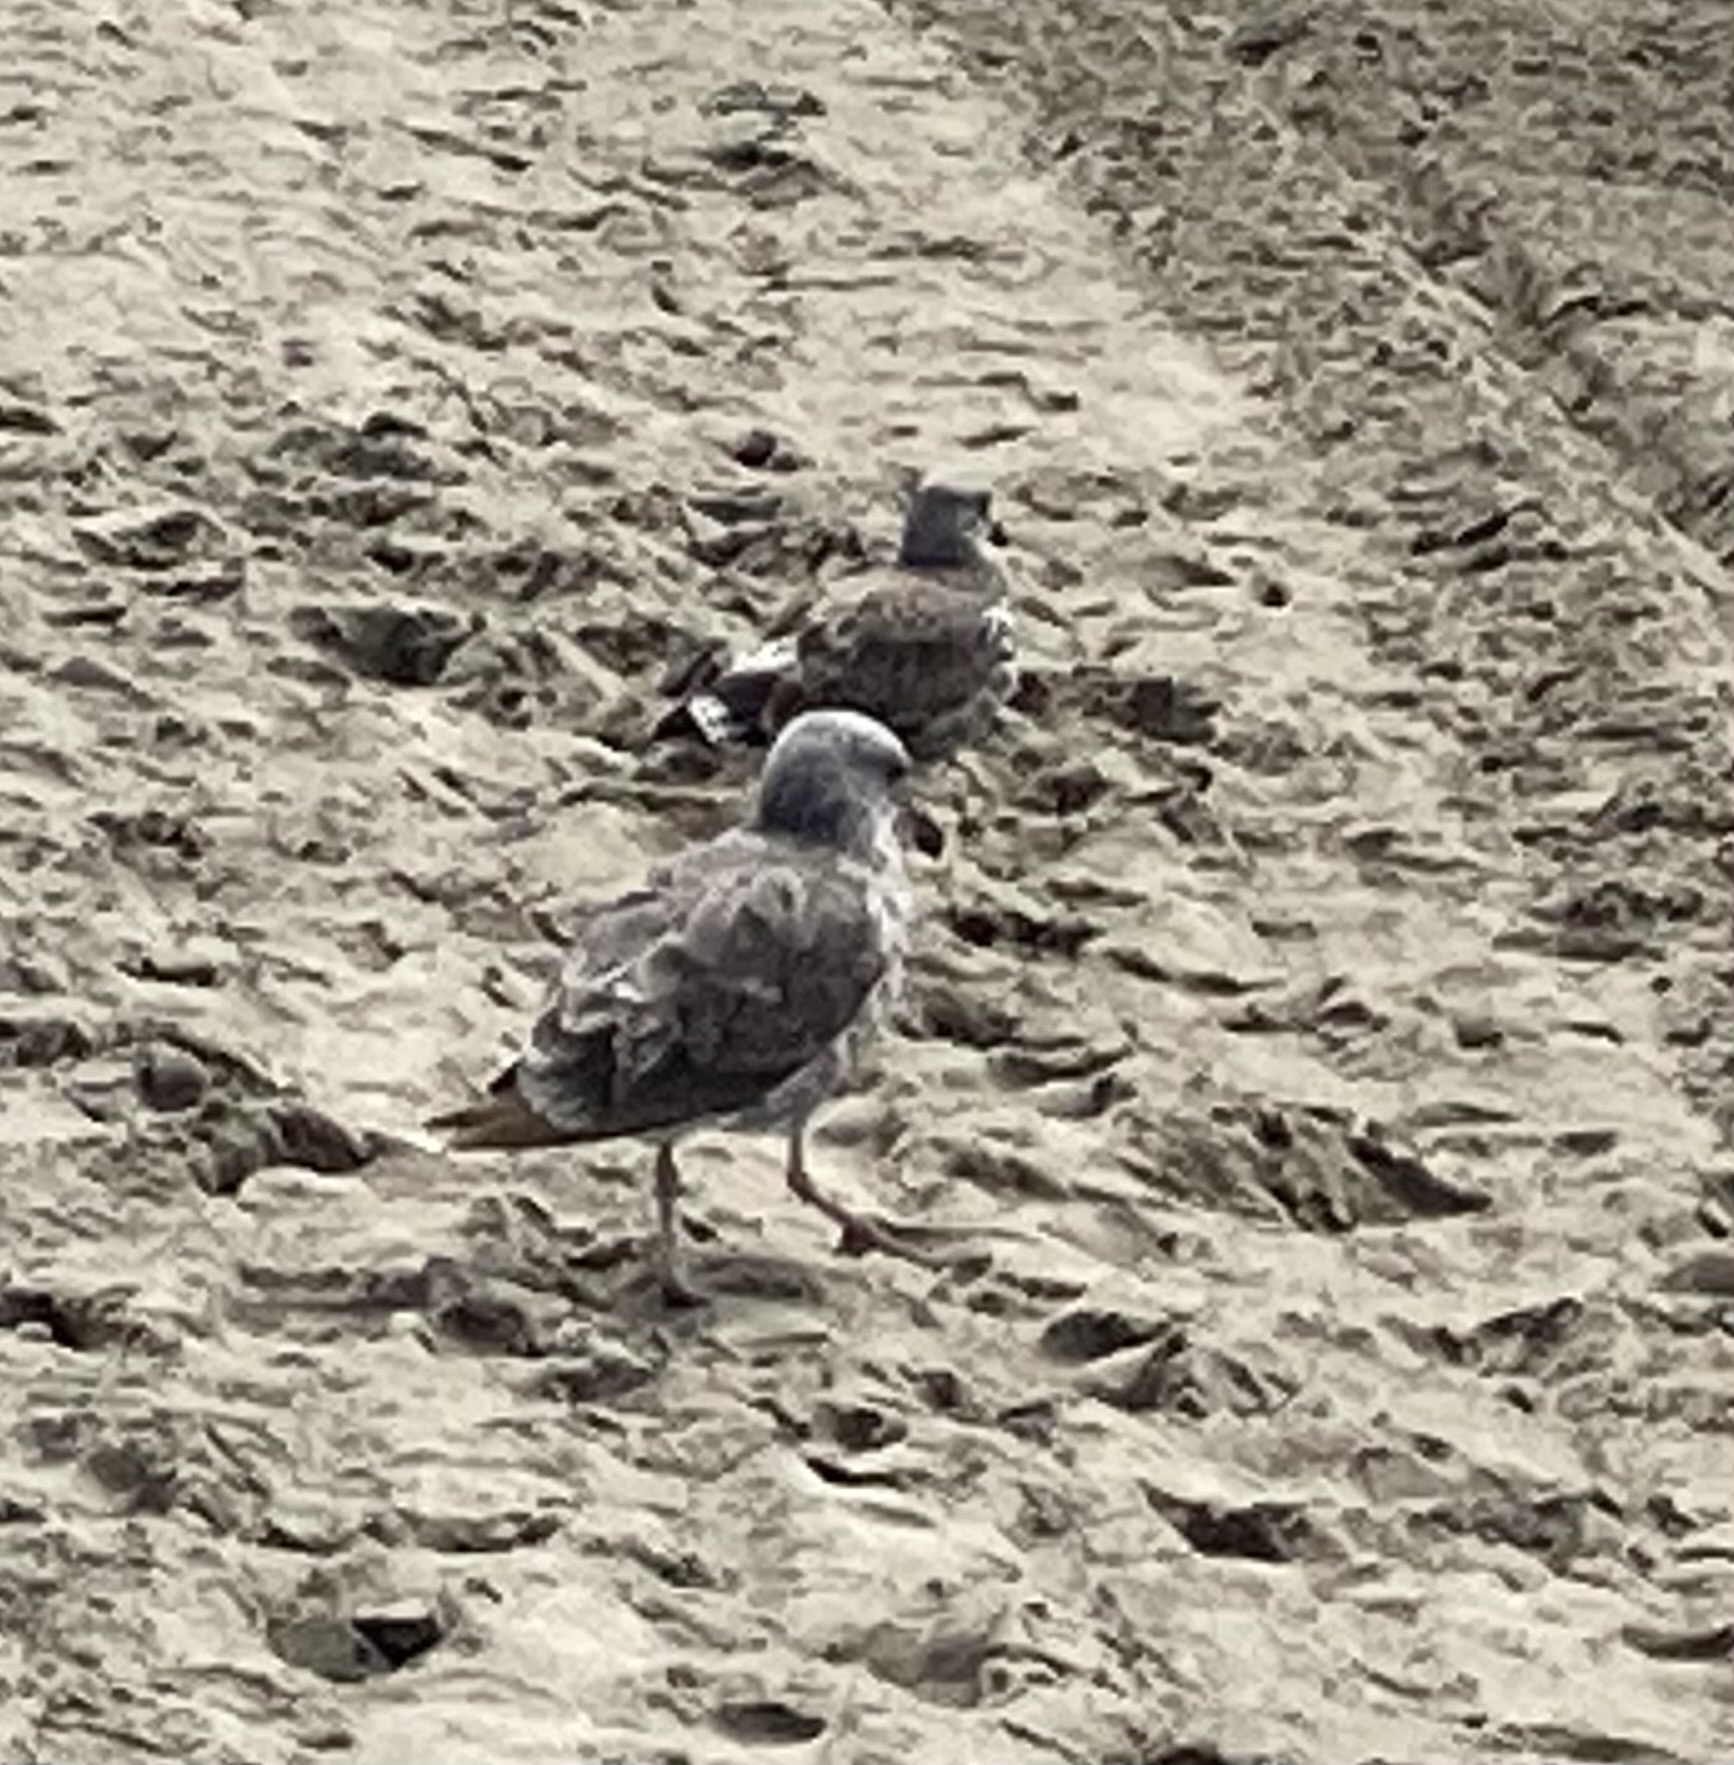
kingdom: Animalia
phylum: Chordata
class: Aves
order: Charadriiformes
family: Laridae
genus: Larus
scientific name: Larus occidentalis
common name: Western gull
